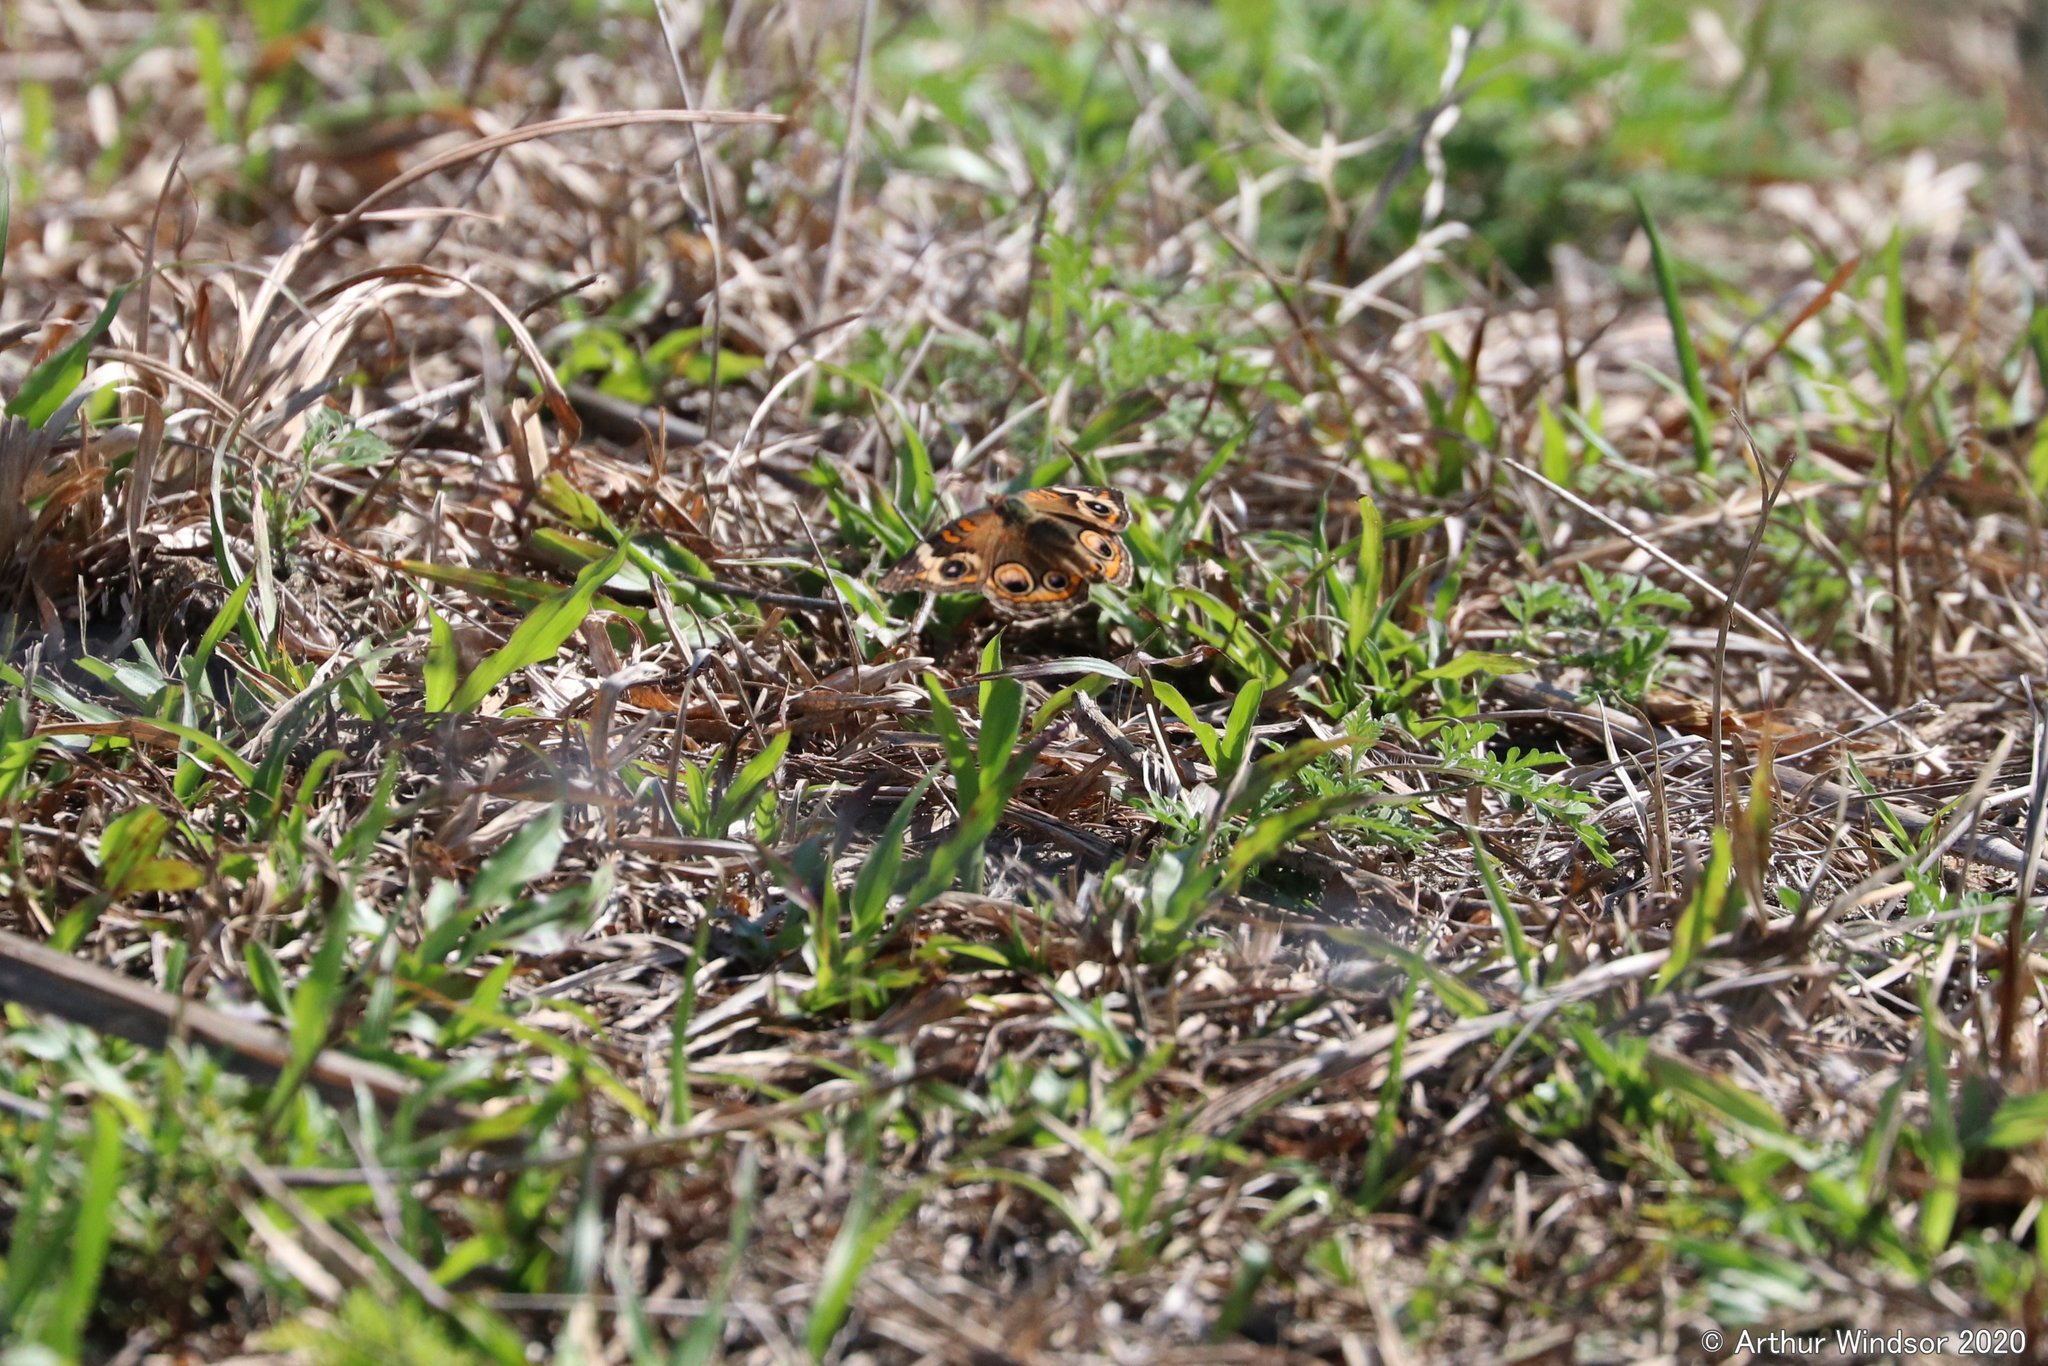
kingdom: Animalia
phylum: Arthropoda
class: Insecta
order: Lepidoptera
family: Nymphalidae
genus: Junonia
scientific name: Junonia coenia
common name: Common buckeye
